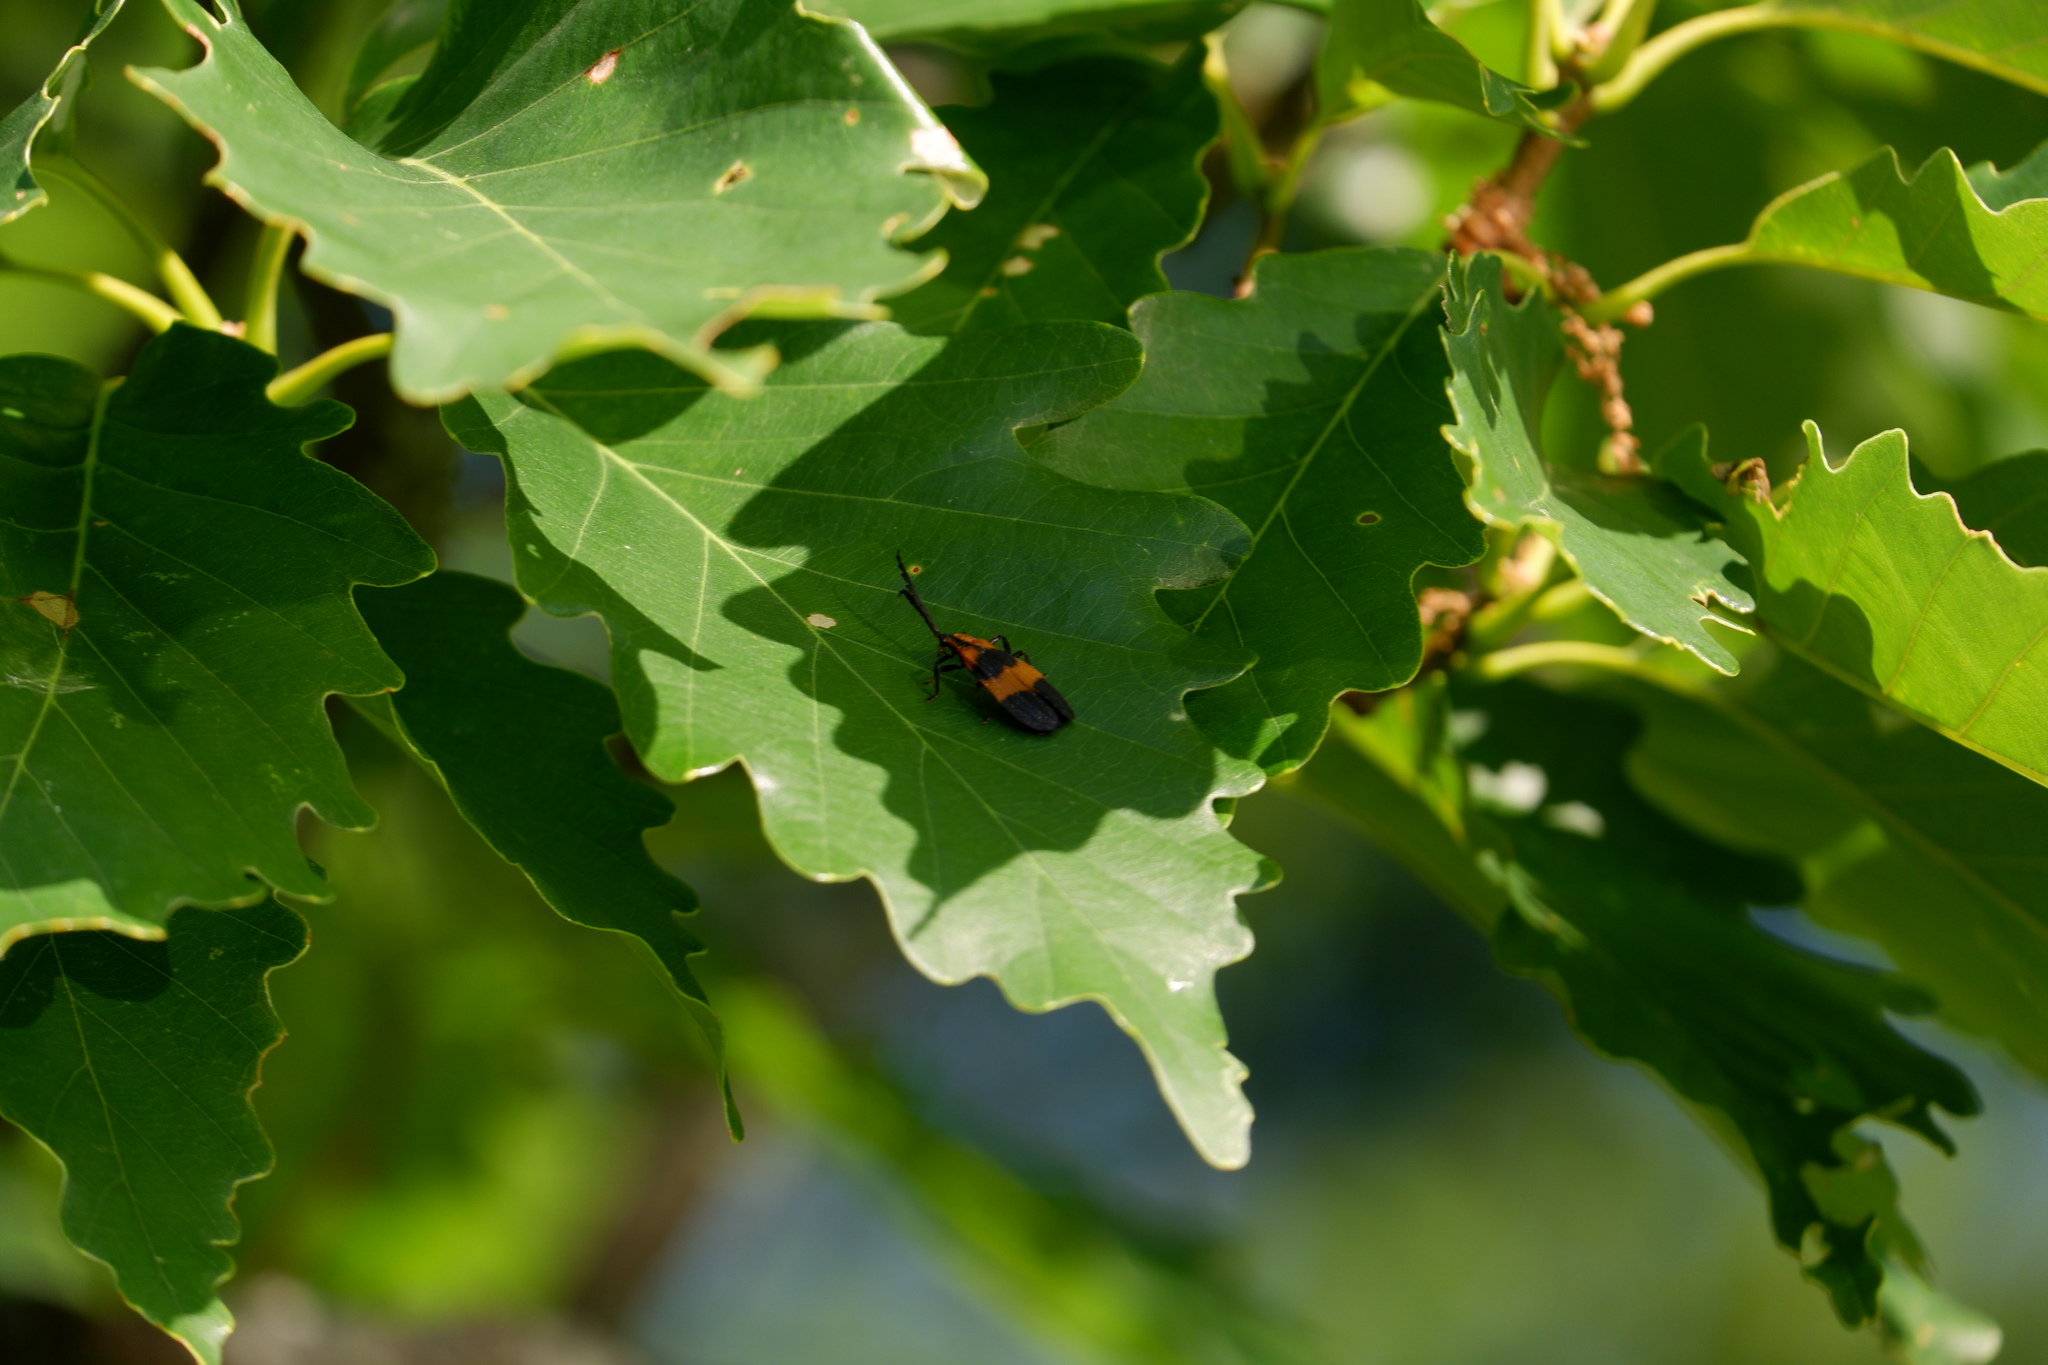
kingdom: Animalia
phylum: Arthropoda
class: Insecta
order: Coleoptera
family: Lycidae
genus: Calopteron
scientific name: Calopteron reticulatum
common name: Banded net-winged beetle
